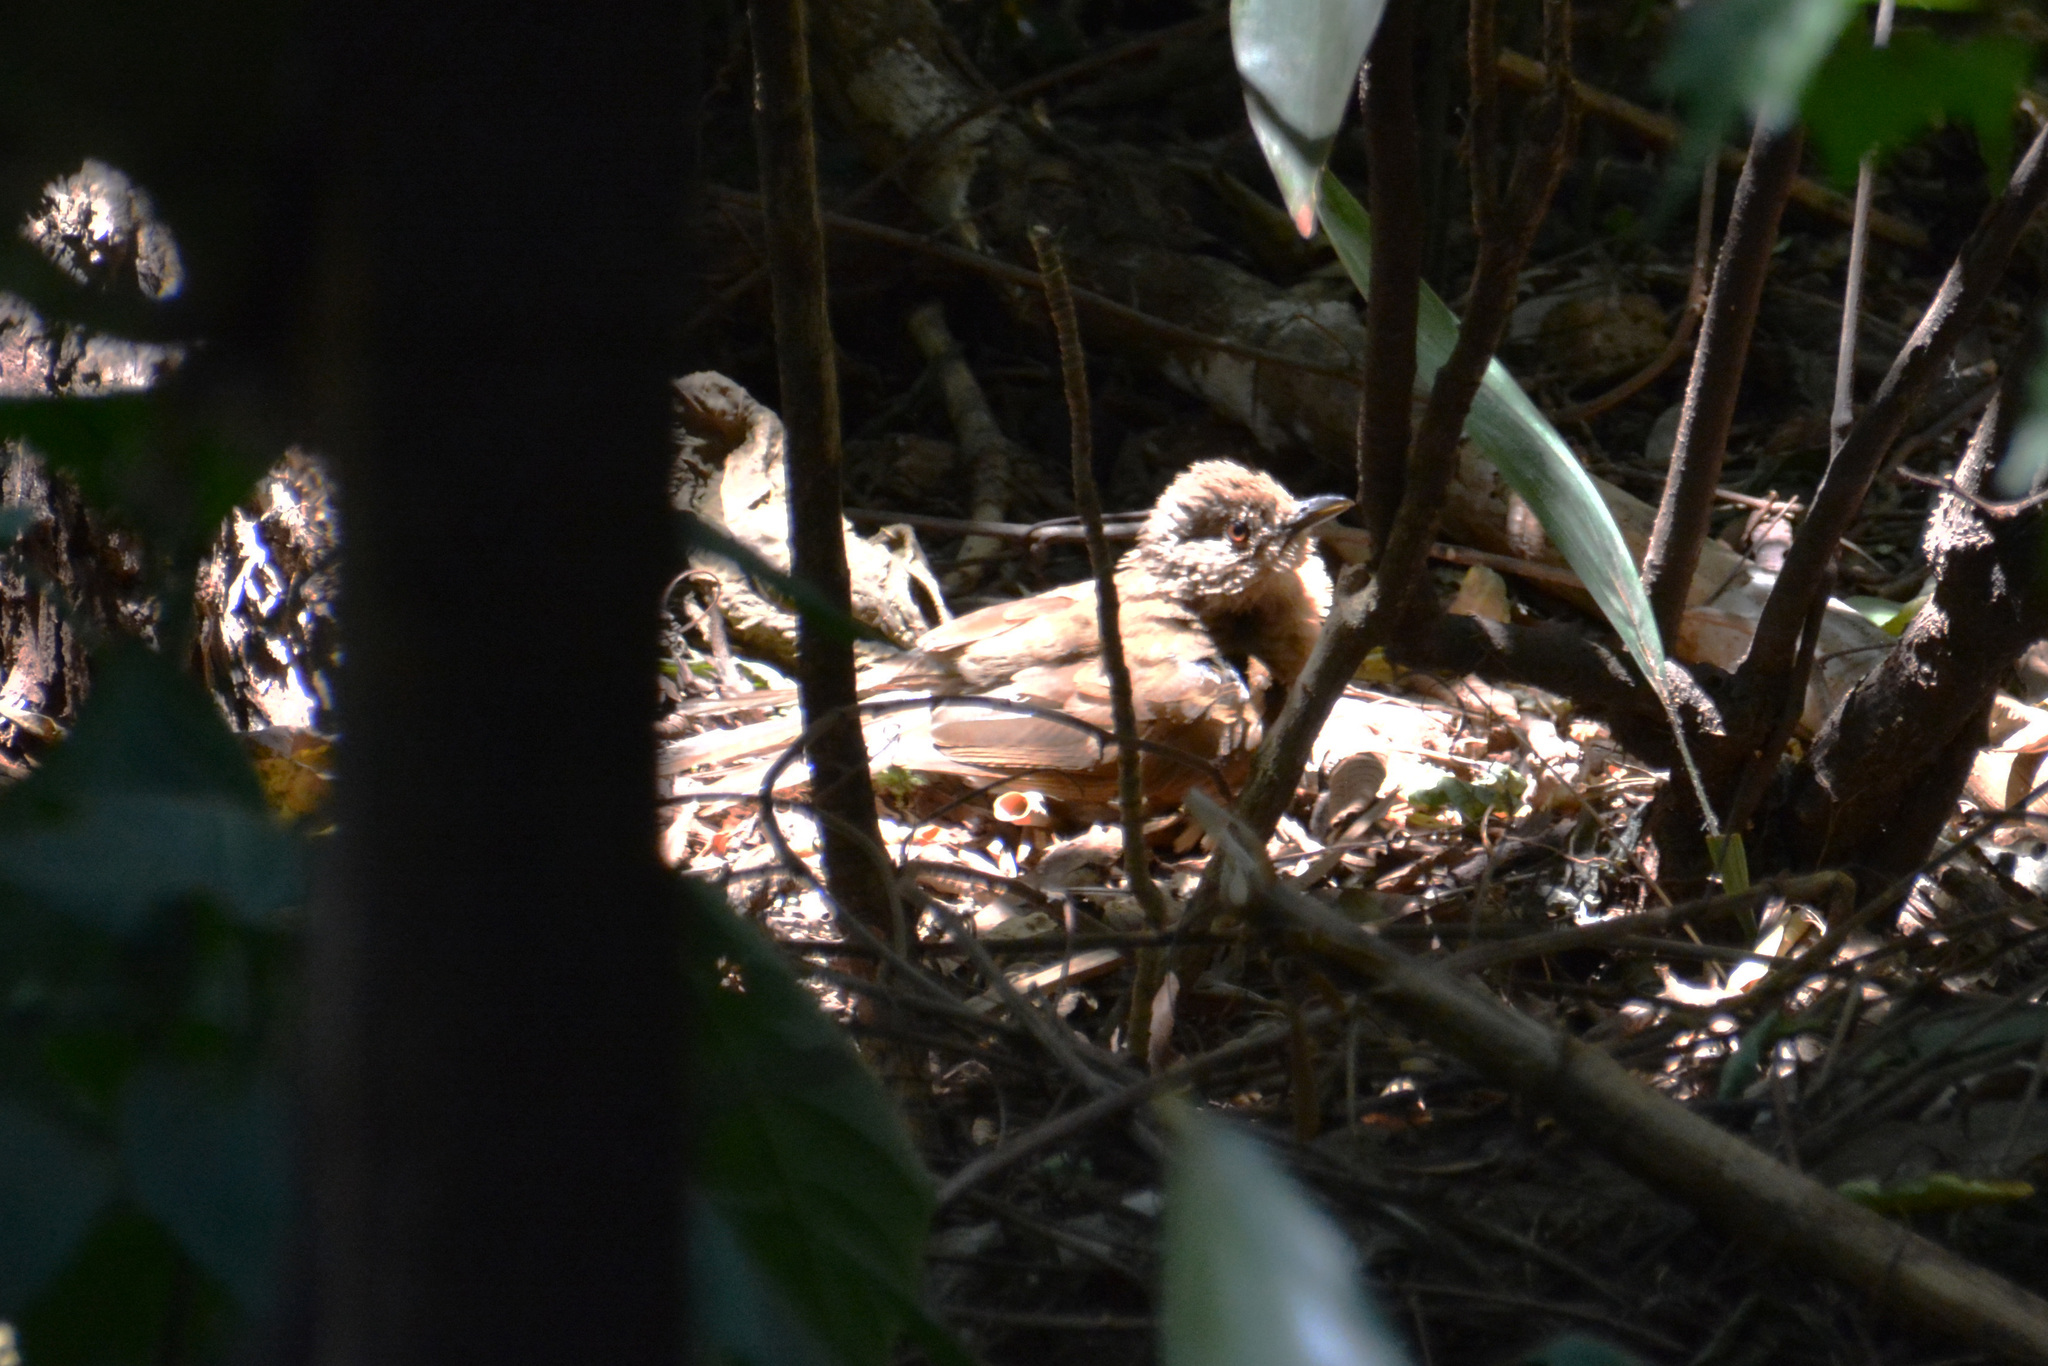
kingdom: Animalia
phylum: Chordata
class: Aves
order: Passeriformes
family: Turdidae
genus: Turdus
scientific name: Turdus leucomelas
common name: Pale-breasted thrush
